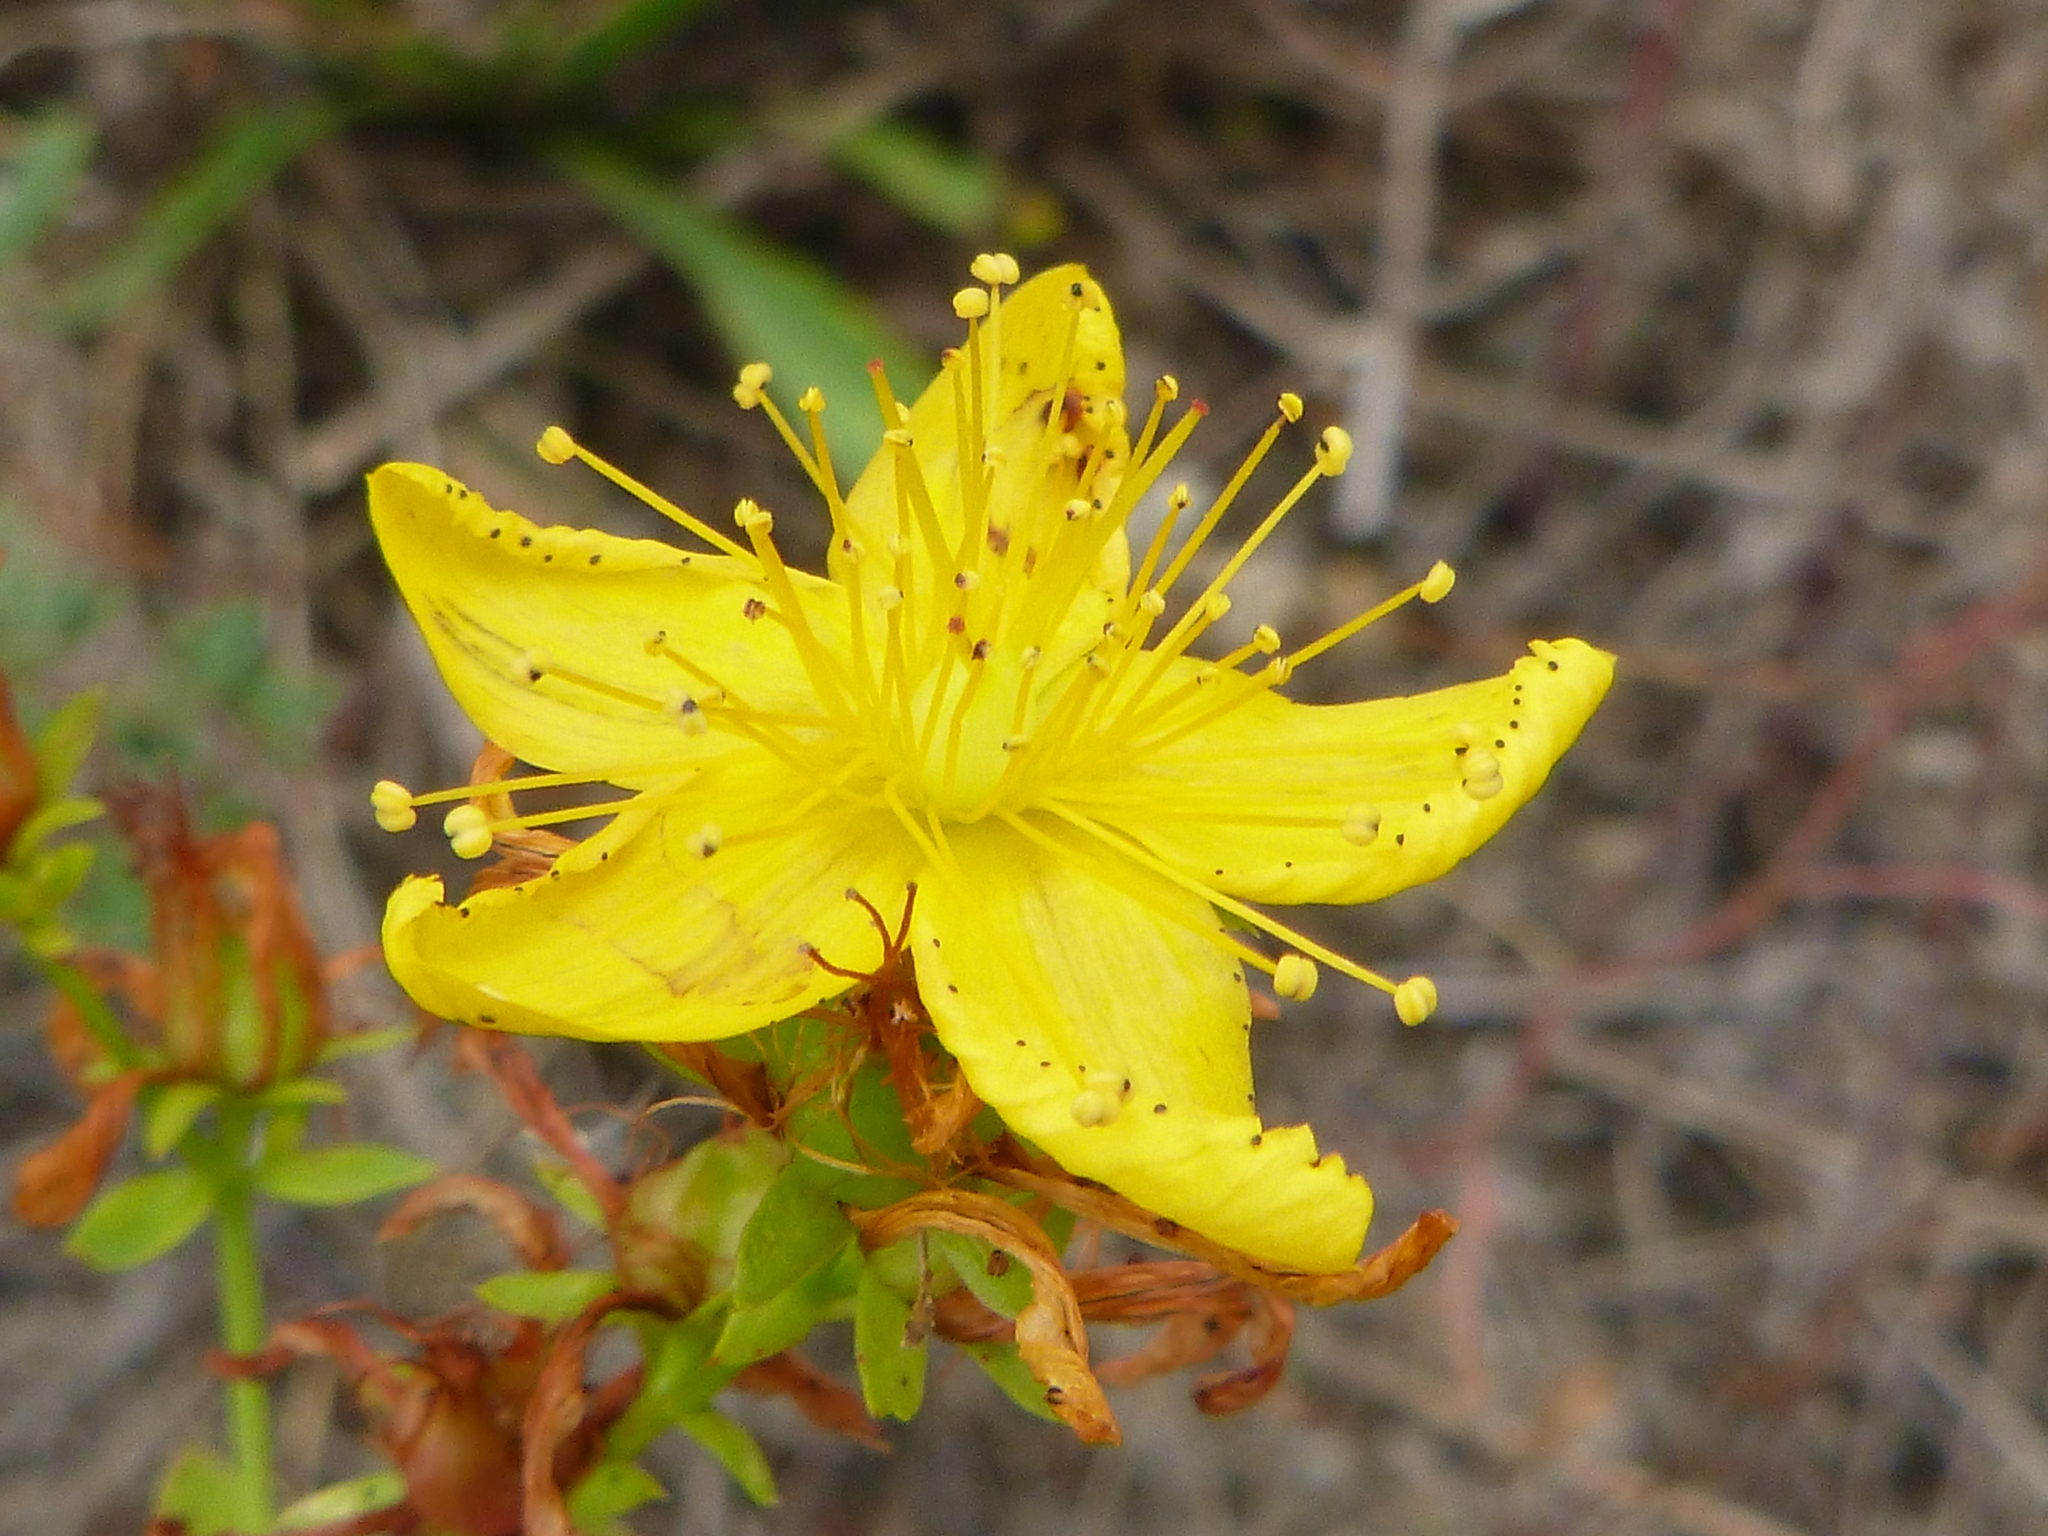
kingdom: Plantae
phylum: Tracheophyta
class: Magnoliopsida
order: Malpighiales
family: Hypericaceae
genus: Hypericum
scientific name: Hypericum perforatum
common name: Common st. johnswort
